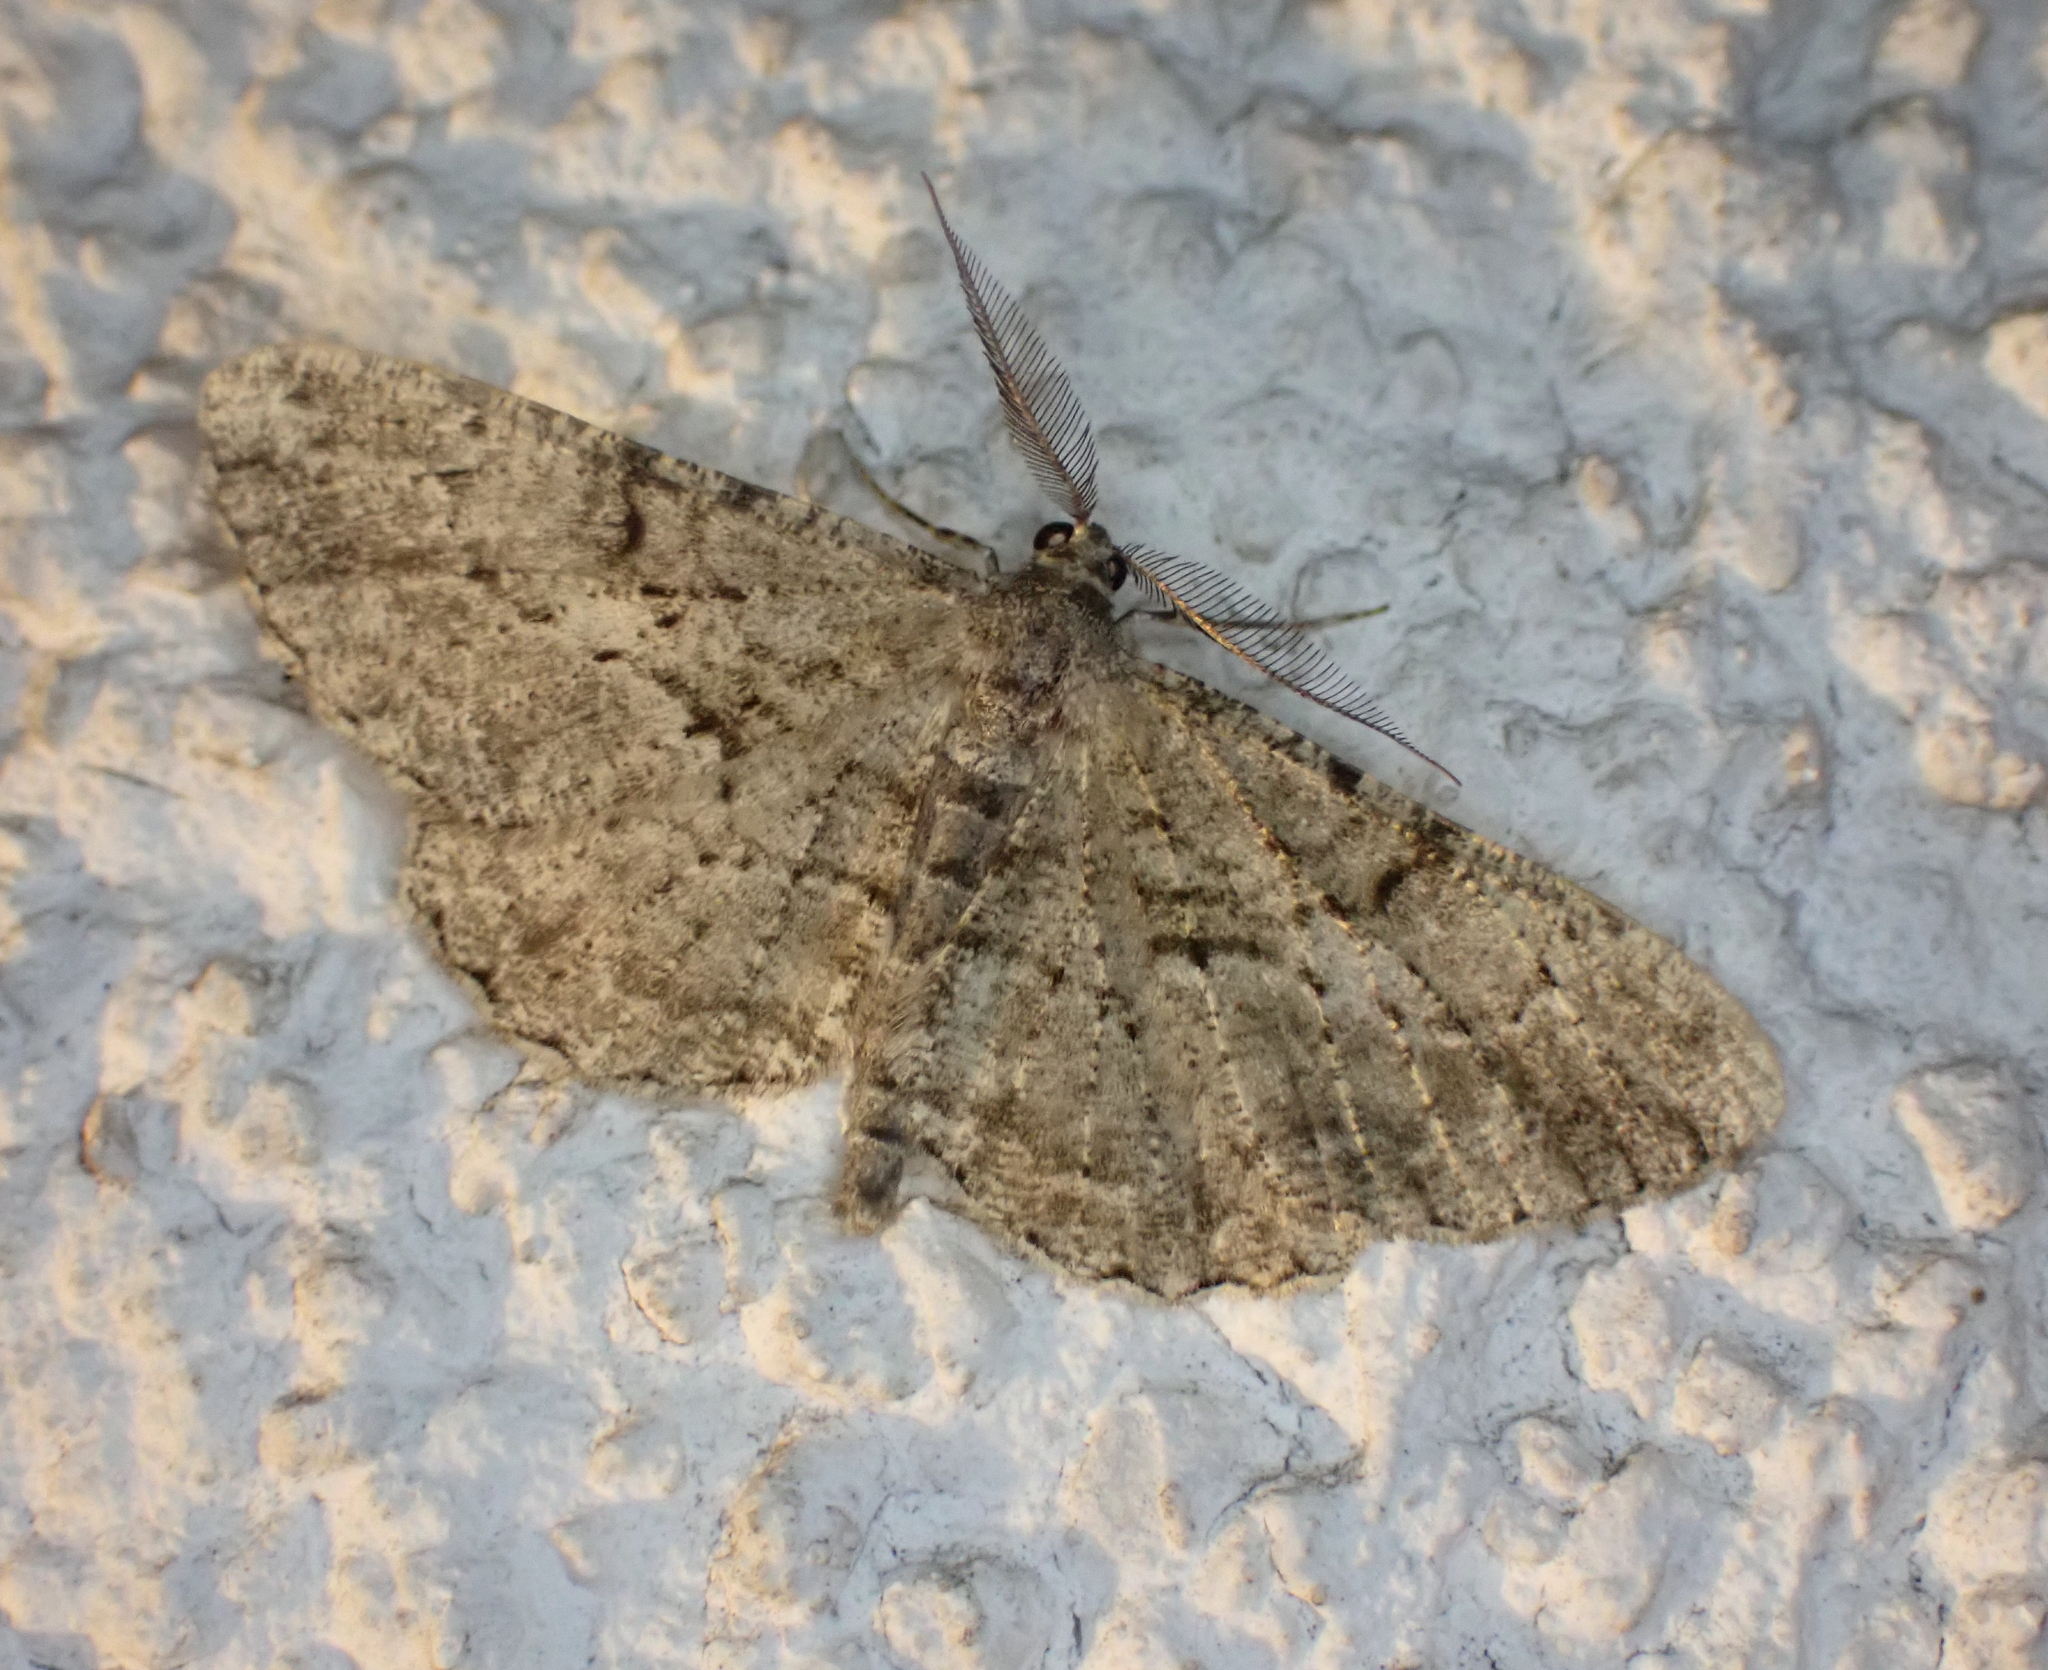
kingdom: Animalia
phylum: Arthropoda
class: Insecta
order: Lepidoptera
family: Geometridae
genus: Peribatodes
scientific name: Peribatodes rhomboidaria
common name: Willow beauty
